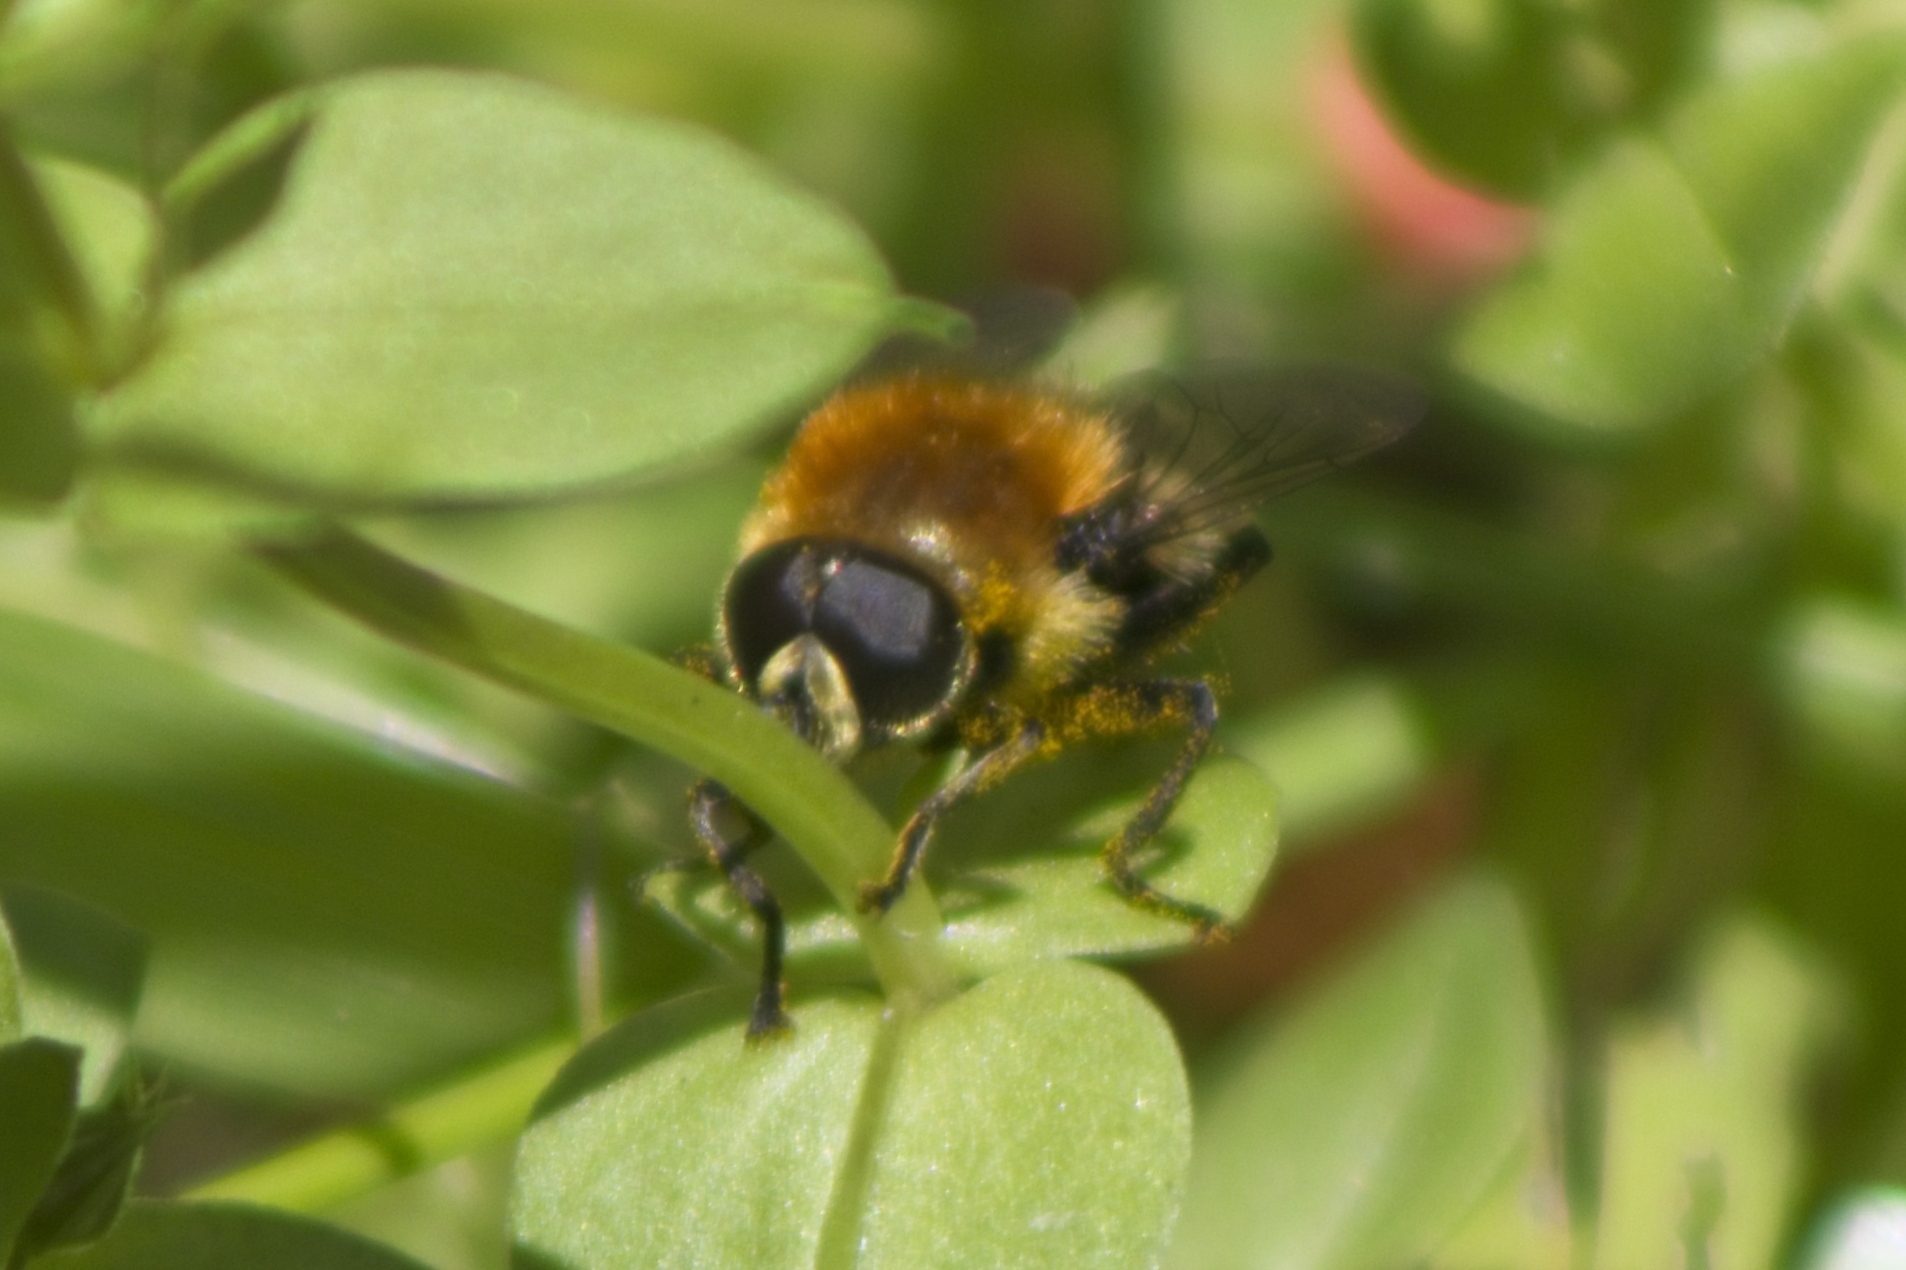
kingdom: Animalia
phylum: Arthropoda
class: Insecta
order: Diptera
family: Syrphidae
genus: Merodon
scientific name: Merodon equestris
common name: Greater bulb-fly
